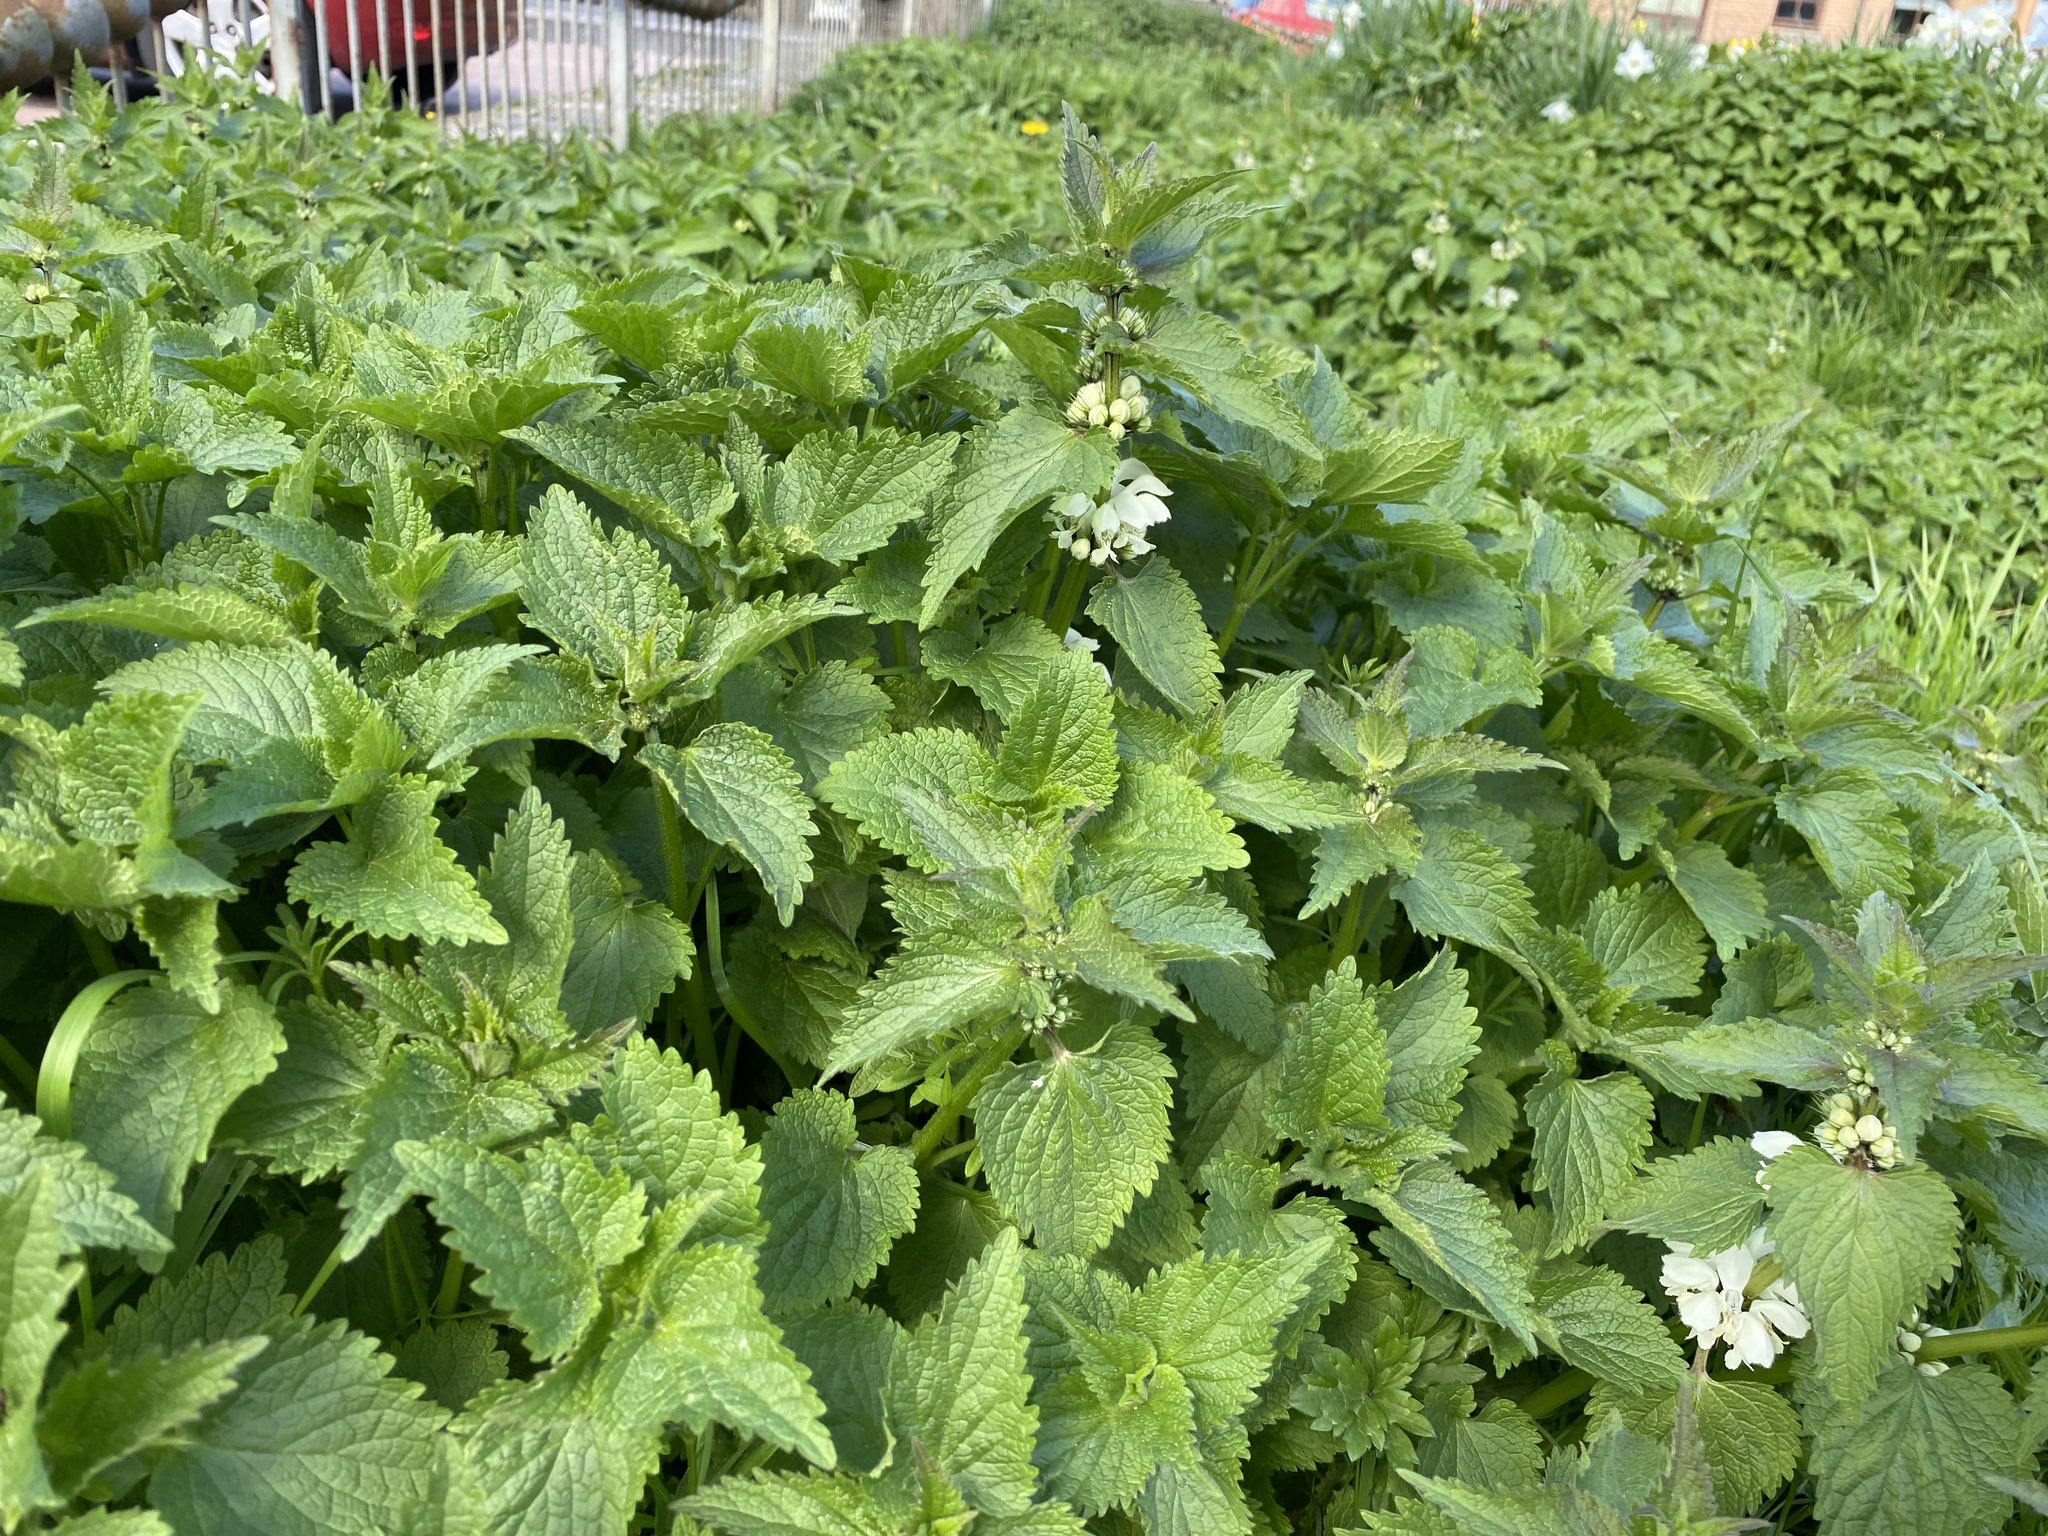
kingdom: Plantae
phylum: Tracheophyta
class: Magnoliopsida
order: Lamiales
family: Lamiaceae
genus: Lamium
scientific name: Lamium album
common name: White dead-nettle
